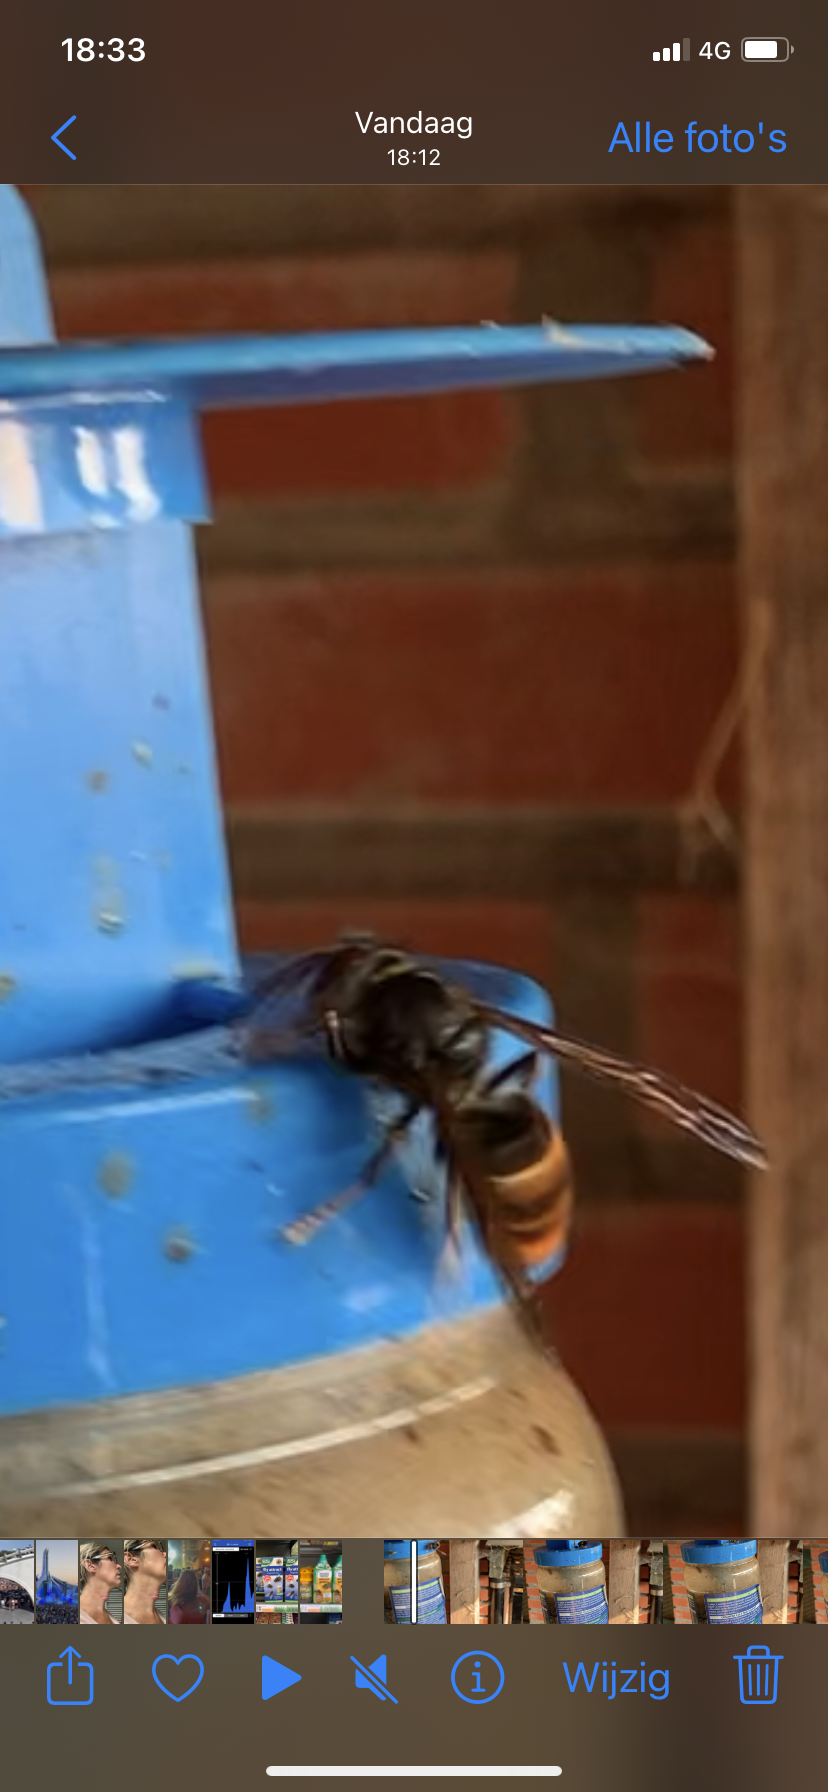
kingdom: Animalia
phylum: Arthropoda
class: Insecta
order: Hymenoptera
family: Vespidae
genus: Vespa
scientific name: Vespa velutina
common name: Asian hornet
